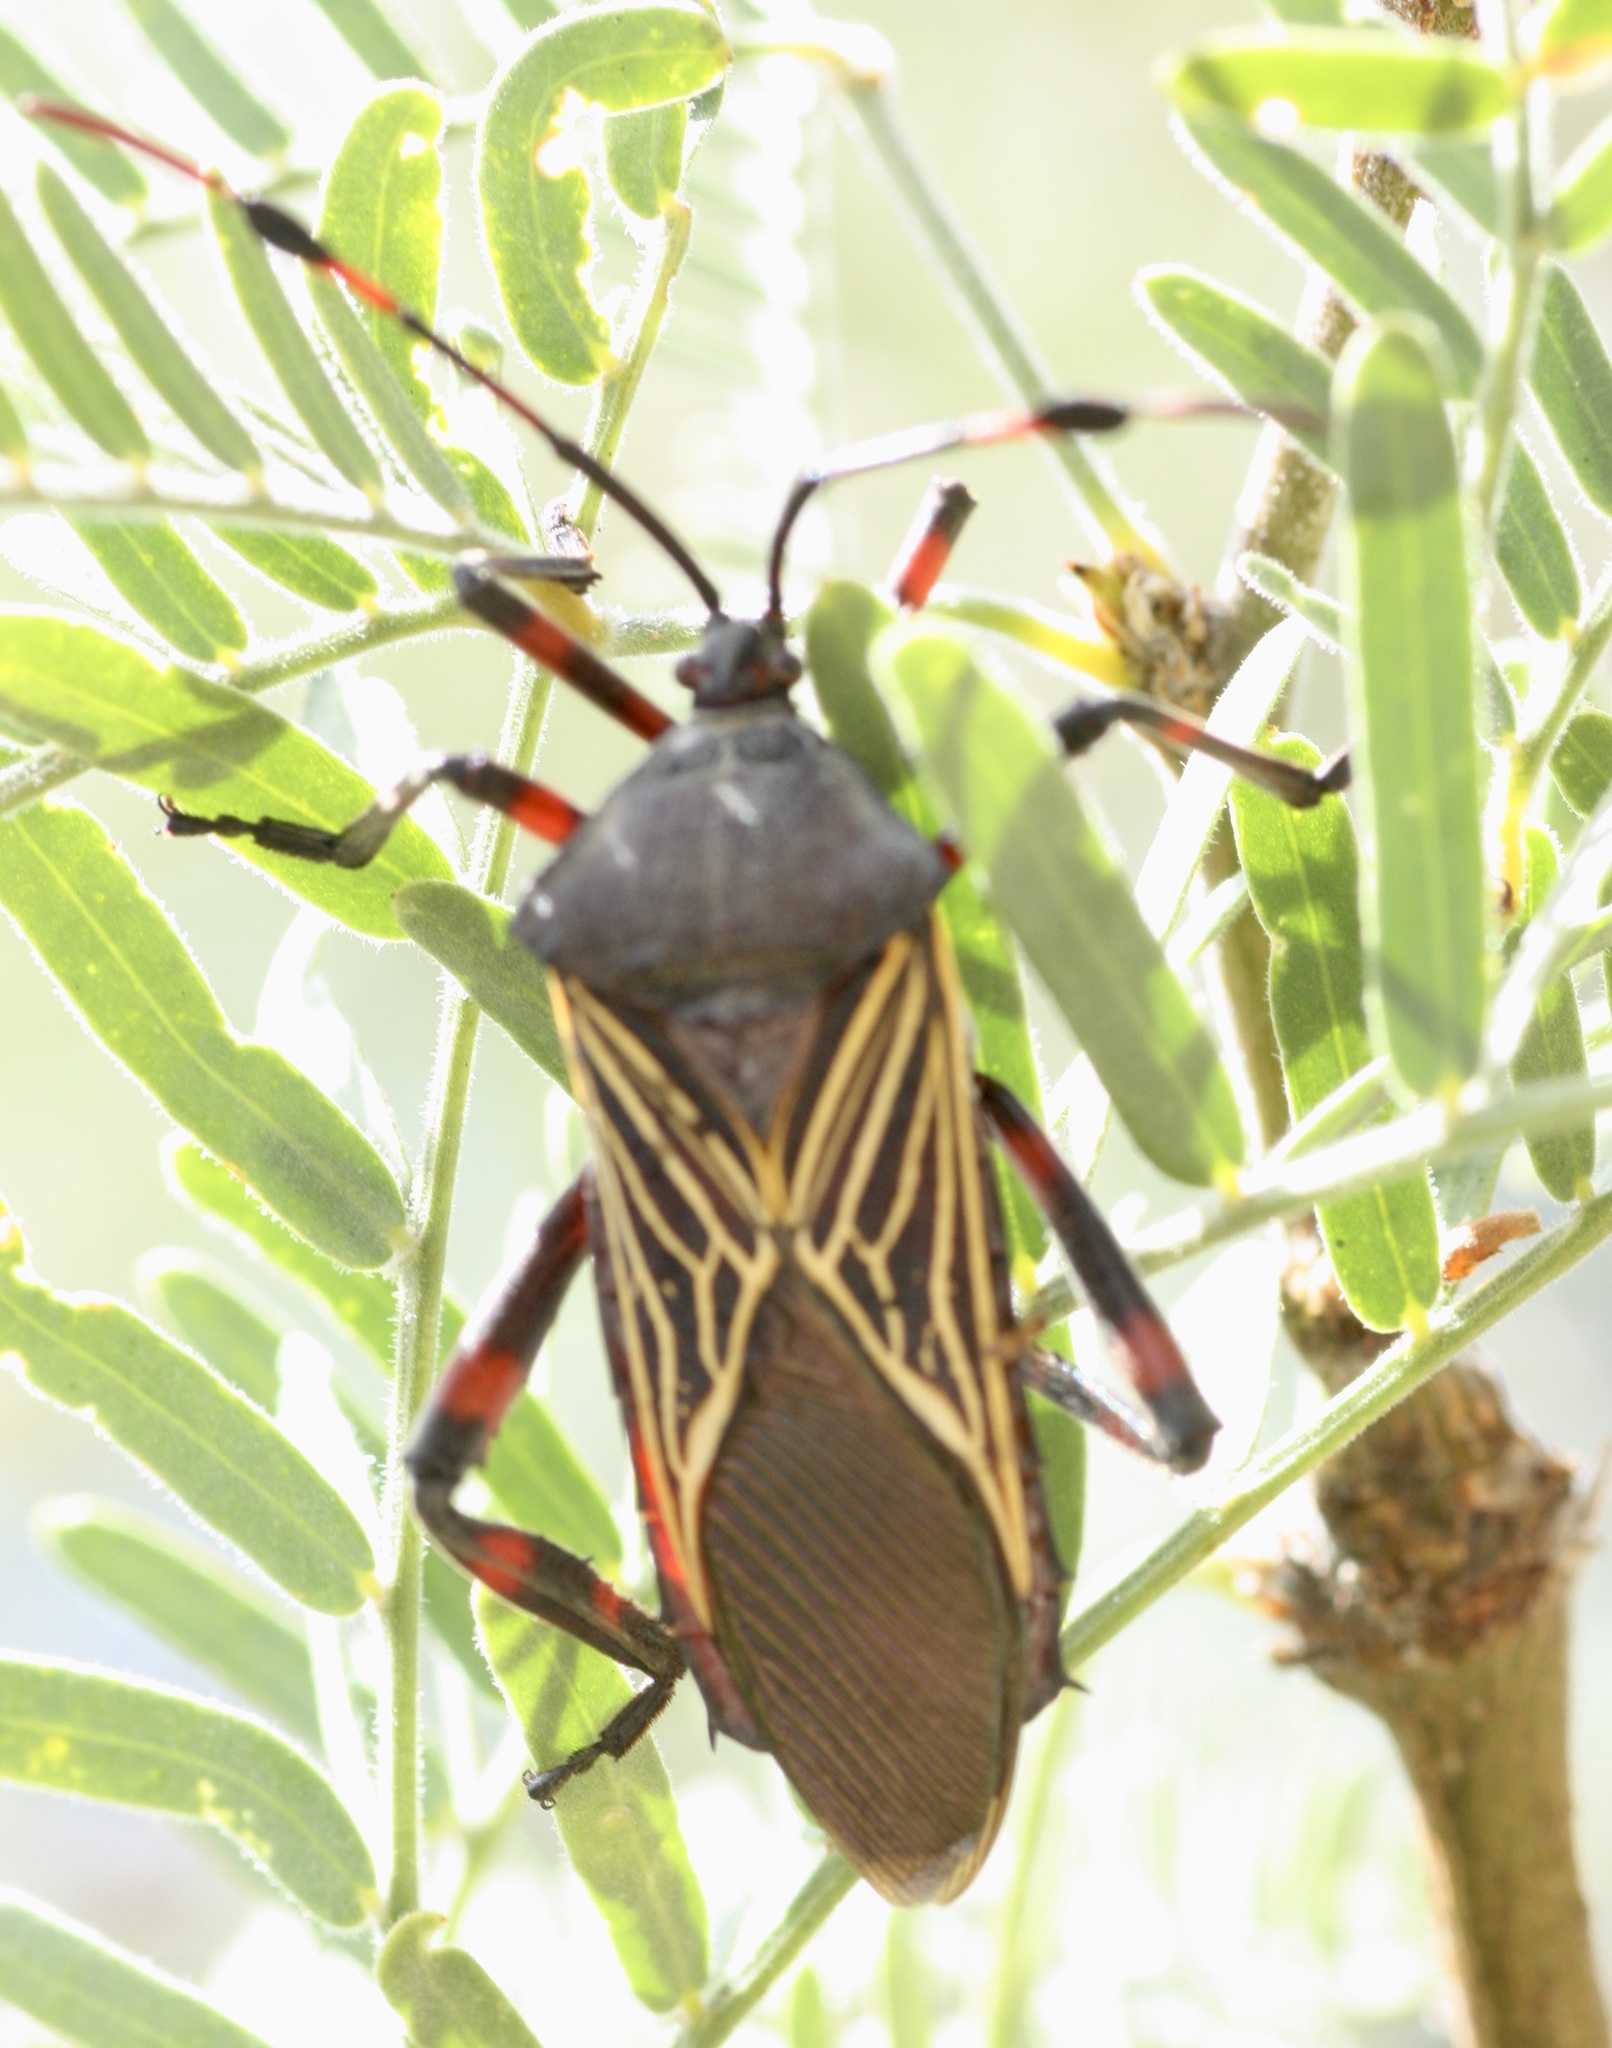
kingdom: Animalia
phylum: Arthropoda
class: Insecta
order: Hemiptera
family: Coreidae
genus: Thasus
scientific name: Thasus neocalifornicus
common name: Giant mesquite bug
